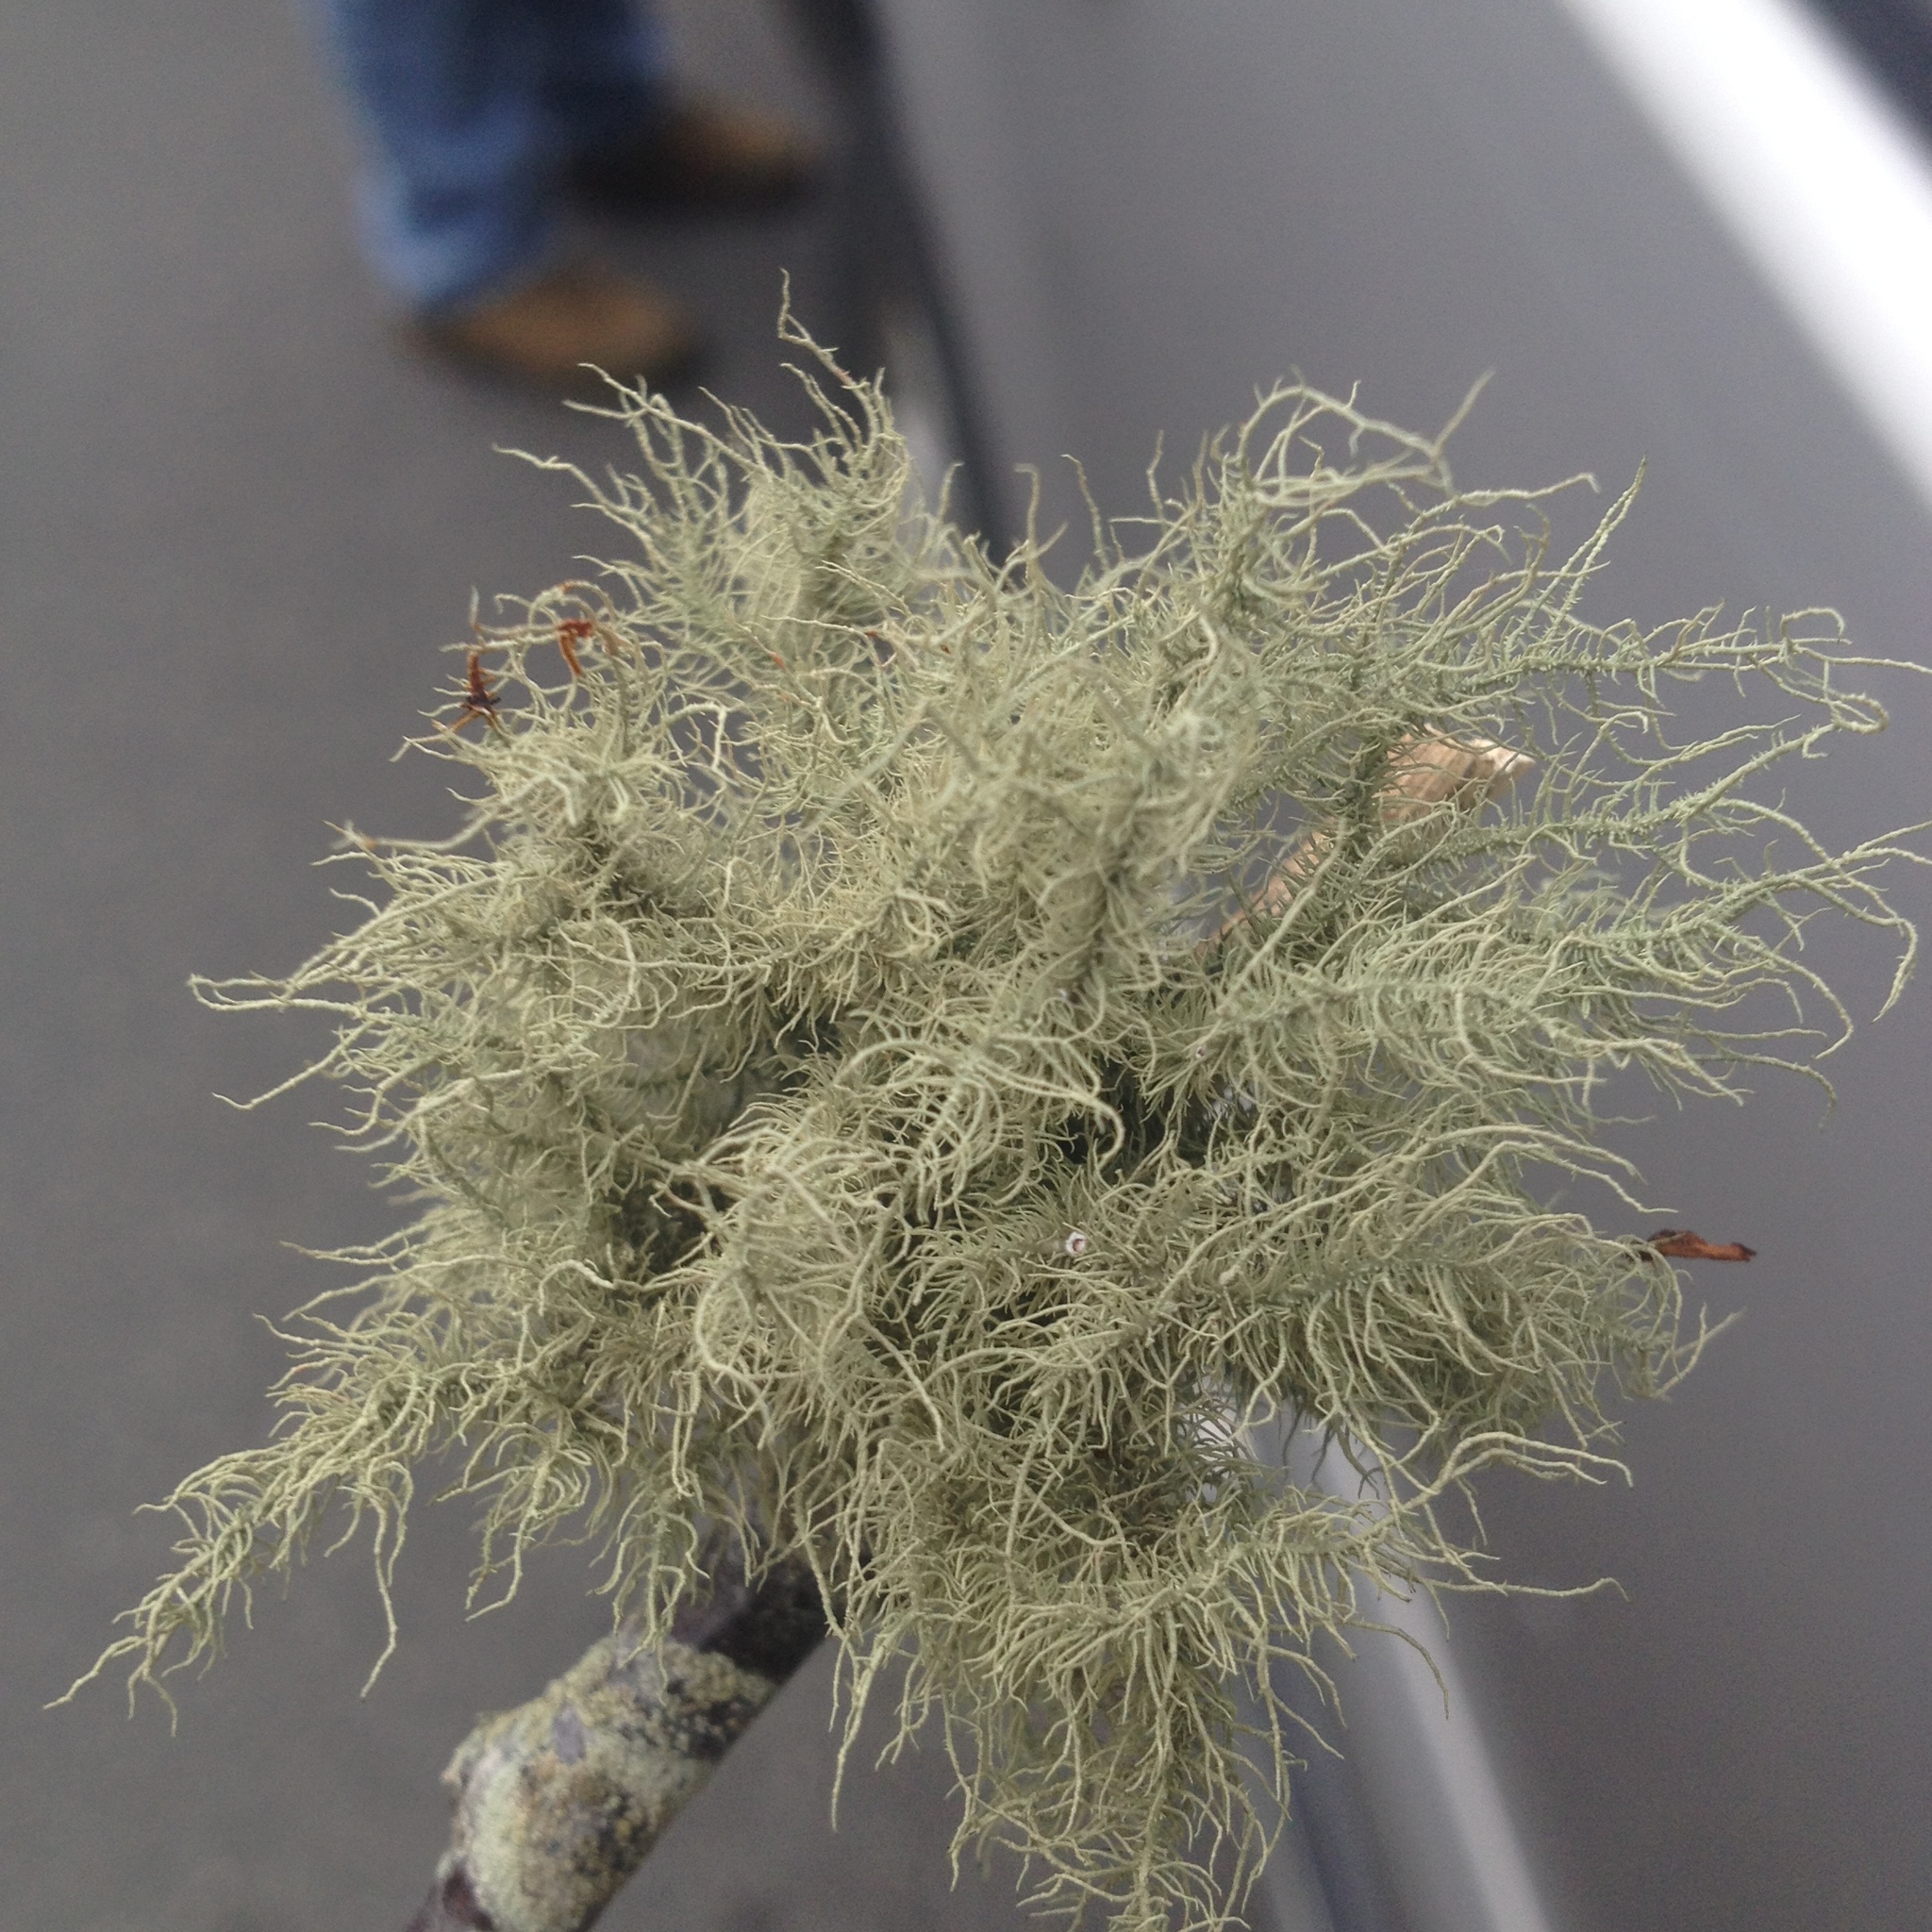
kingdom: Fungi
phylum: Ascomycota
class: Lecanoromycetes
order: Lecanorales
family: Parmeliaceae
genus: Usnea
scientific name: Usnea strigosa
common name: Bushy beard lichen
